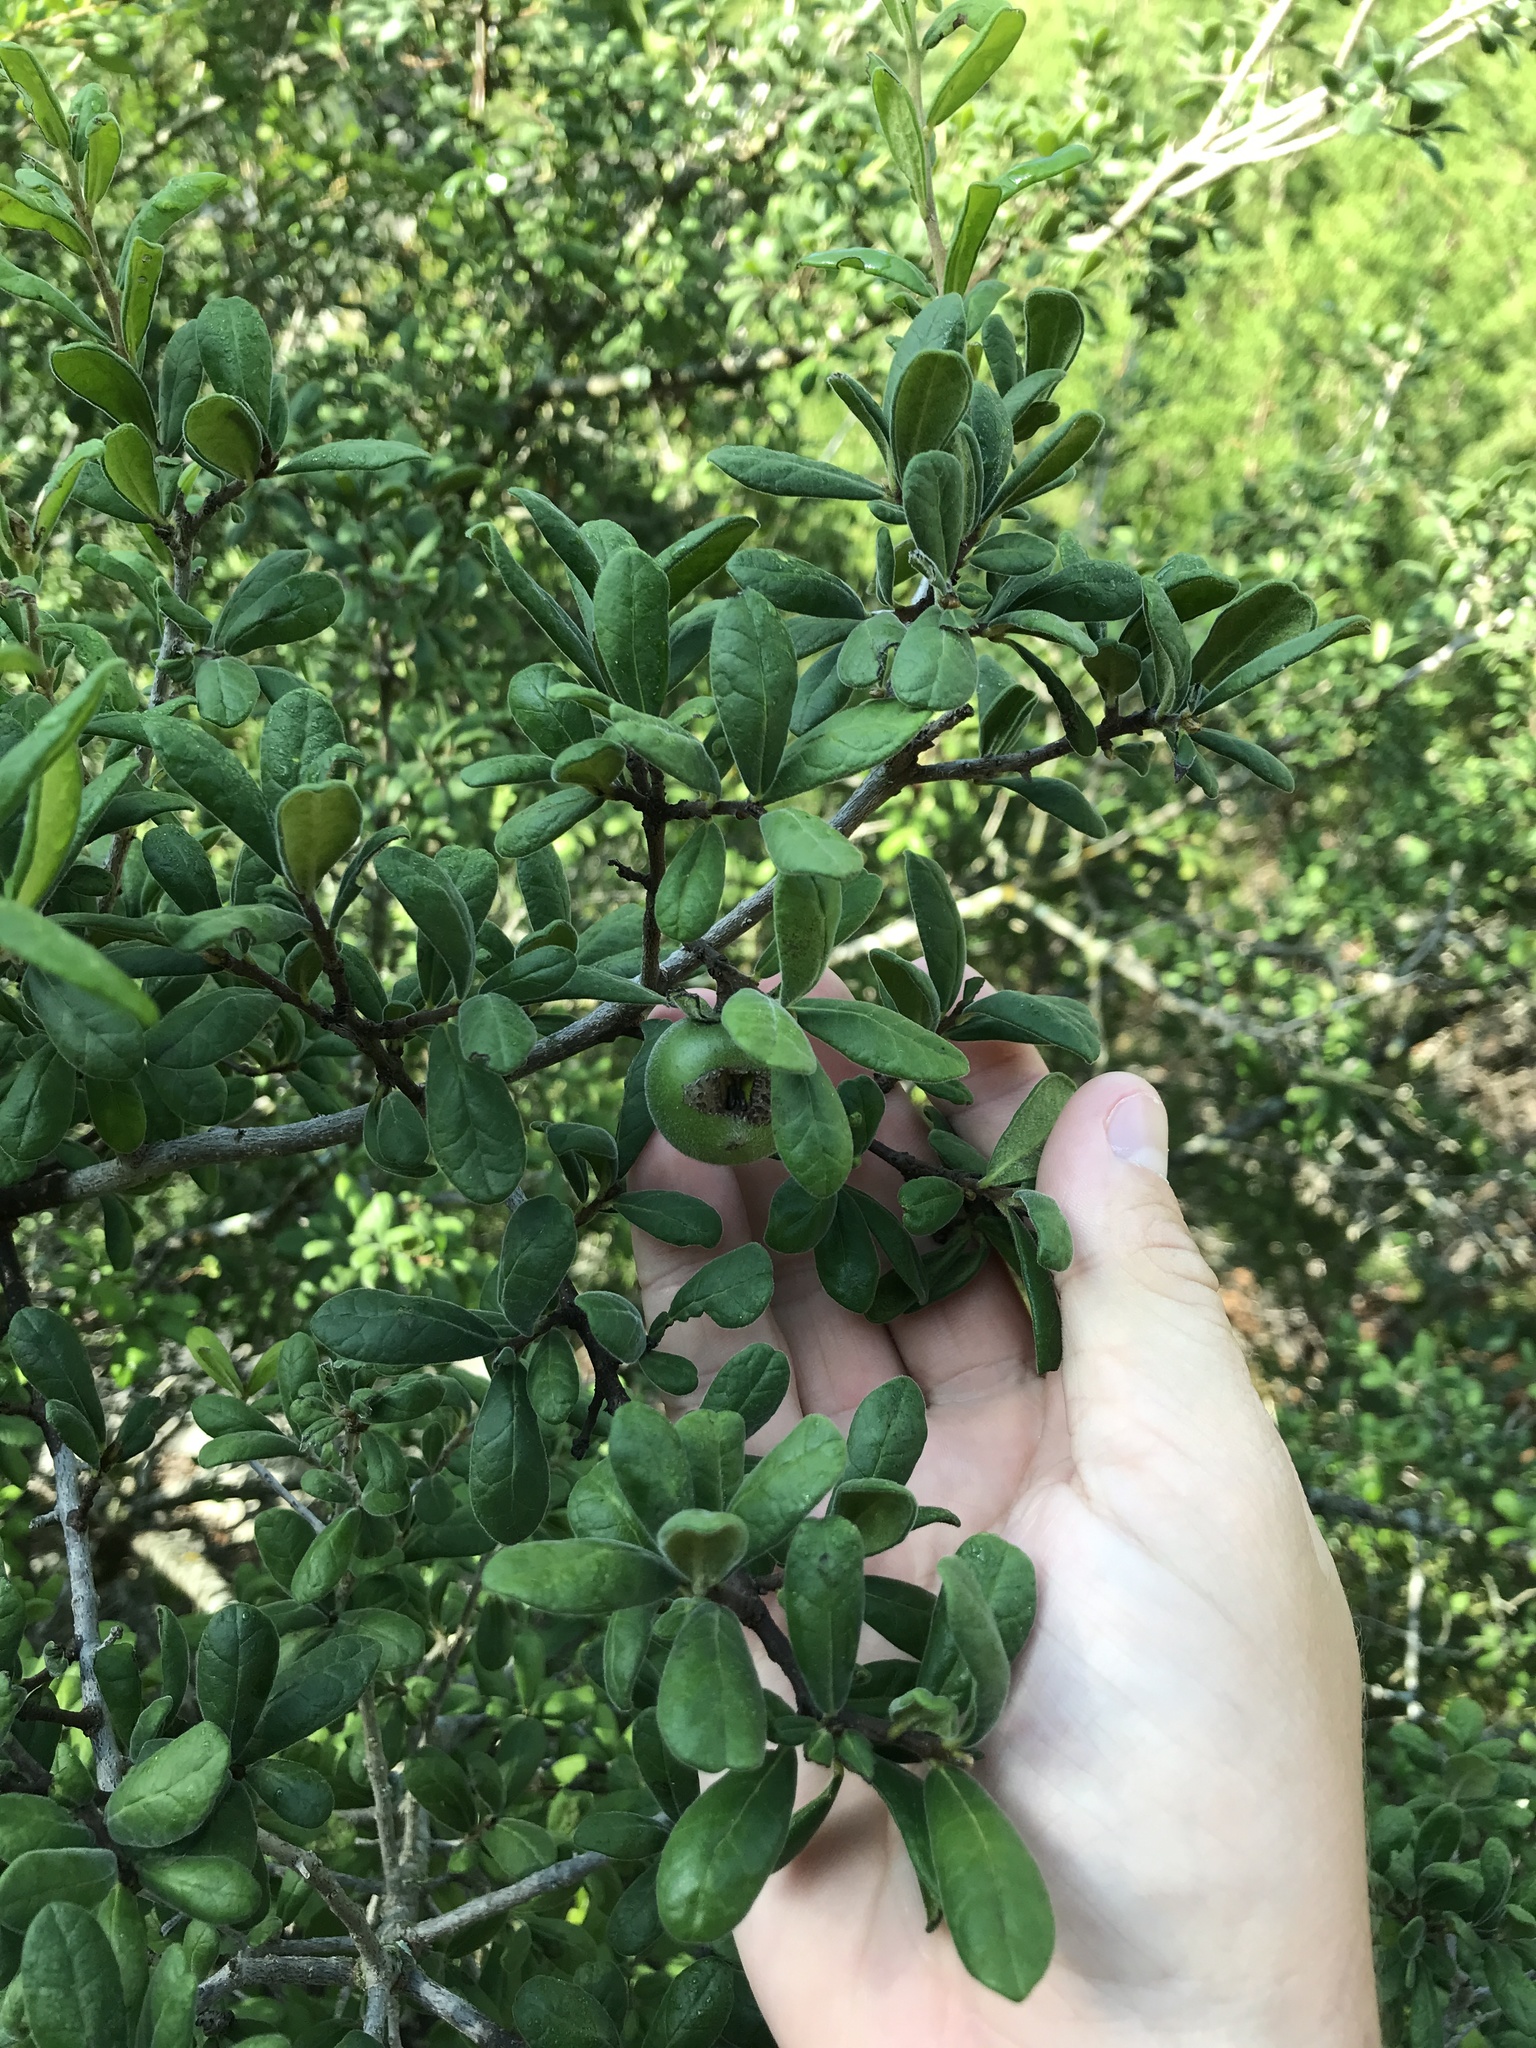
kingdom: Plantae
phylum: Tracheophyta
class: Magnoliopsida
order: Ericales
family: Ebenaceae
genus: Diospyros
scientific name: Diospyros texana
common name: Texas persimmon
